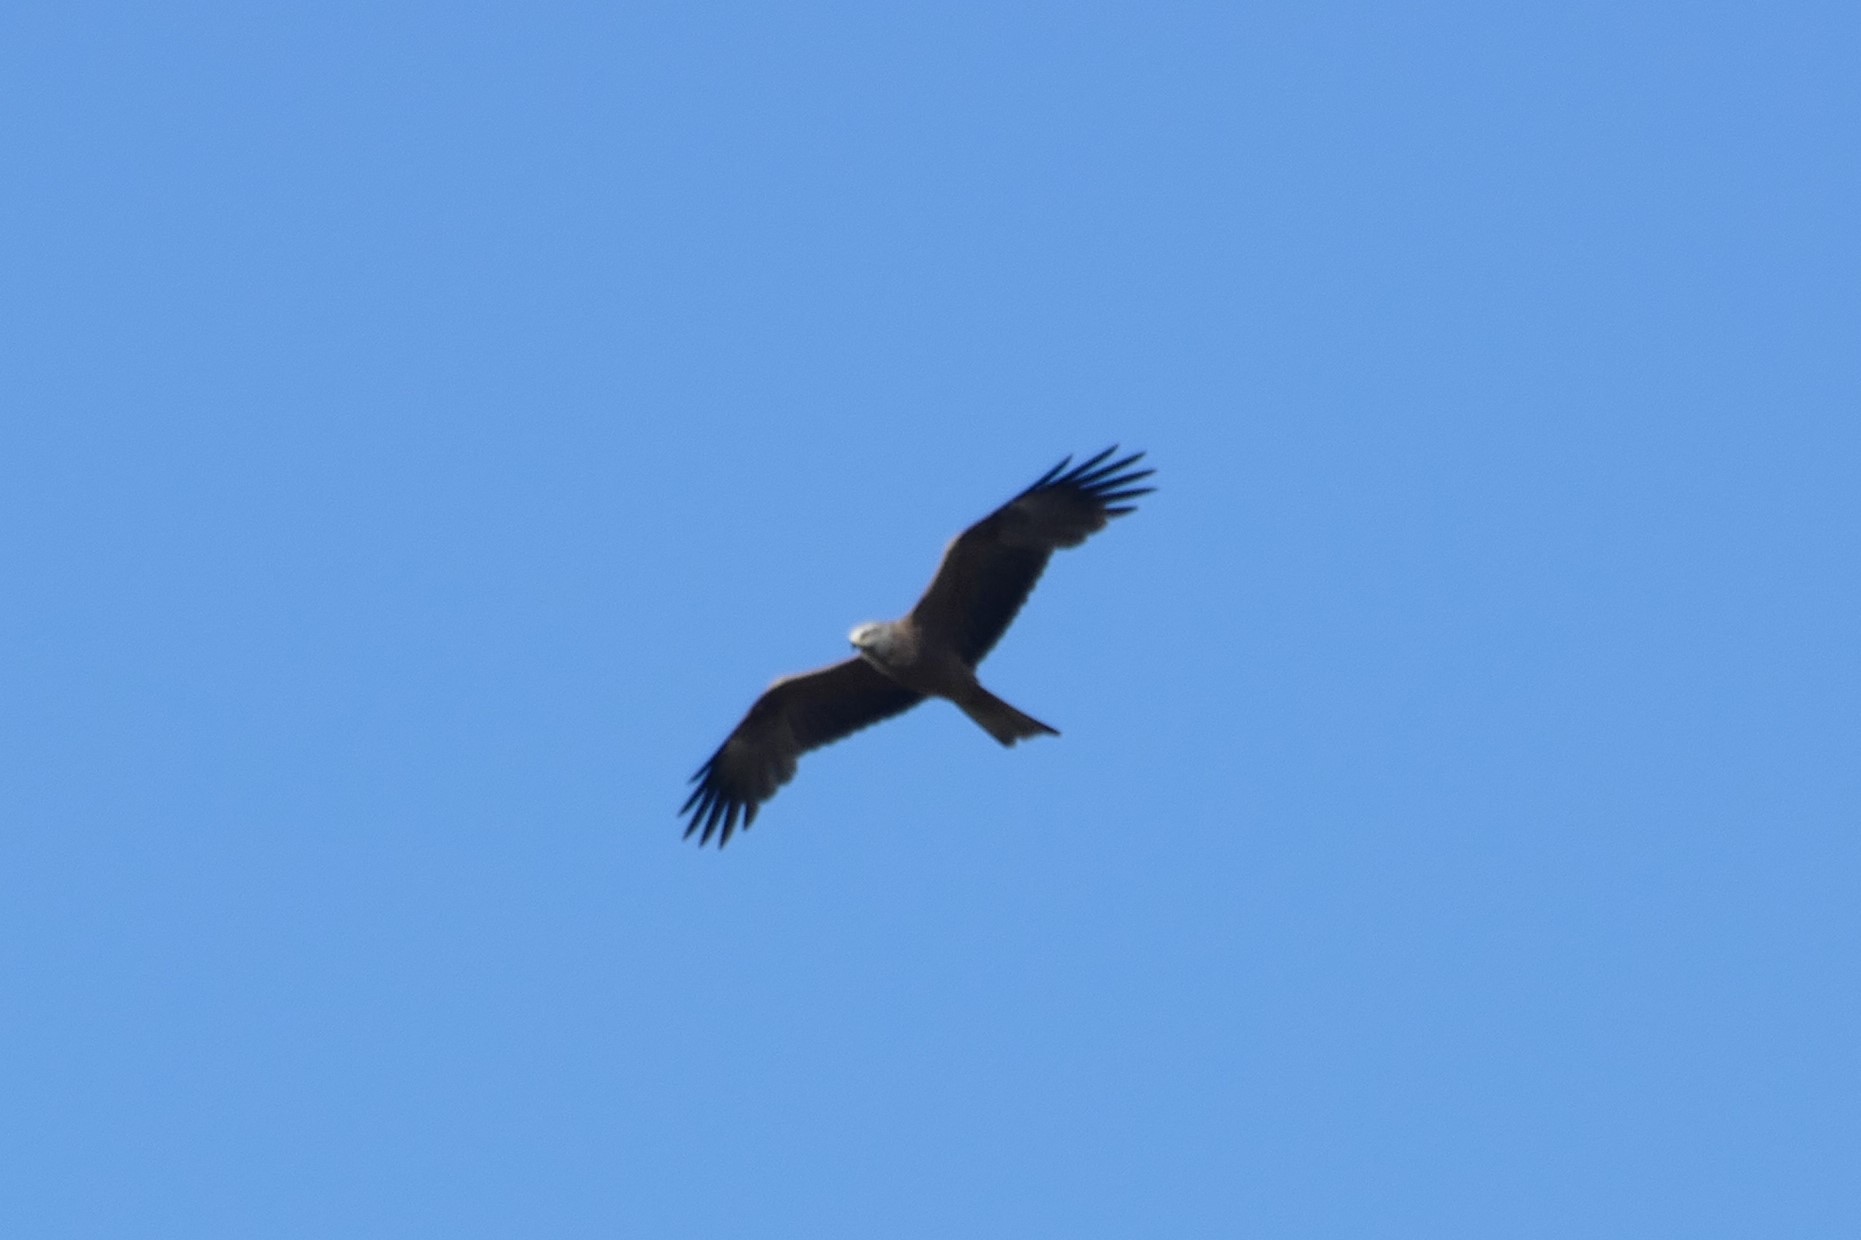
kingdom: Animalia
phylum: Chordata
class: Aves
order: Accipitriformes
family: Accipitridae
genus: Milvus
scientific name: Milvus migrans
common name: Black kite
